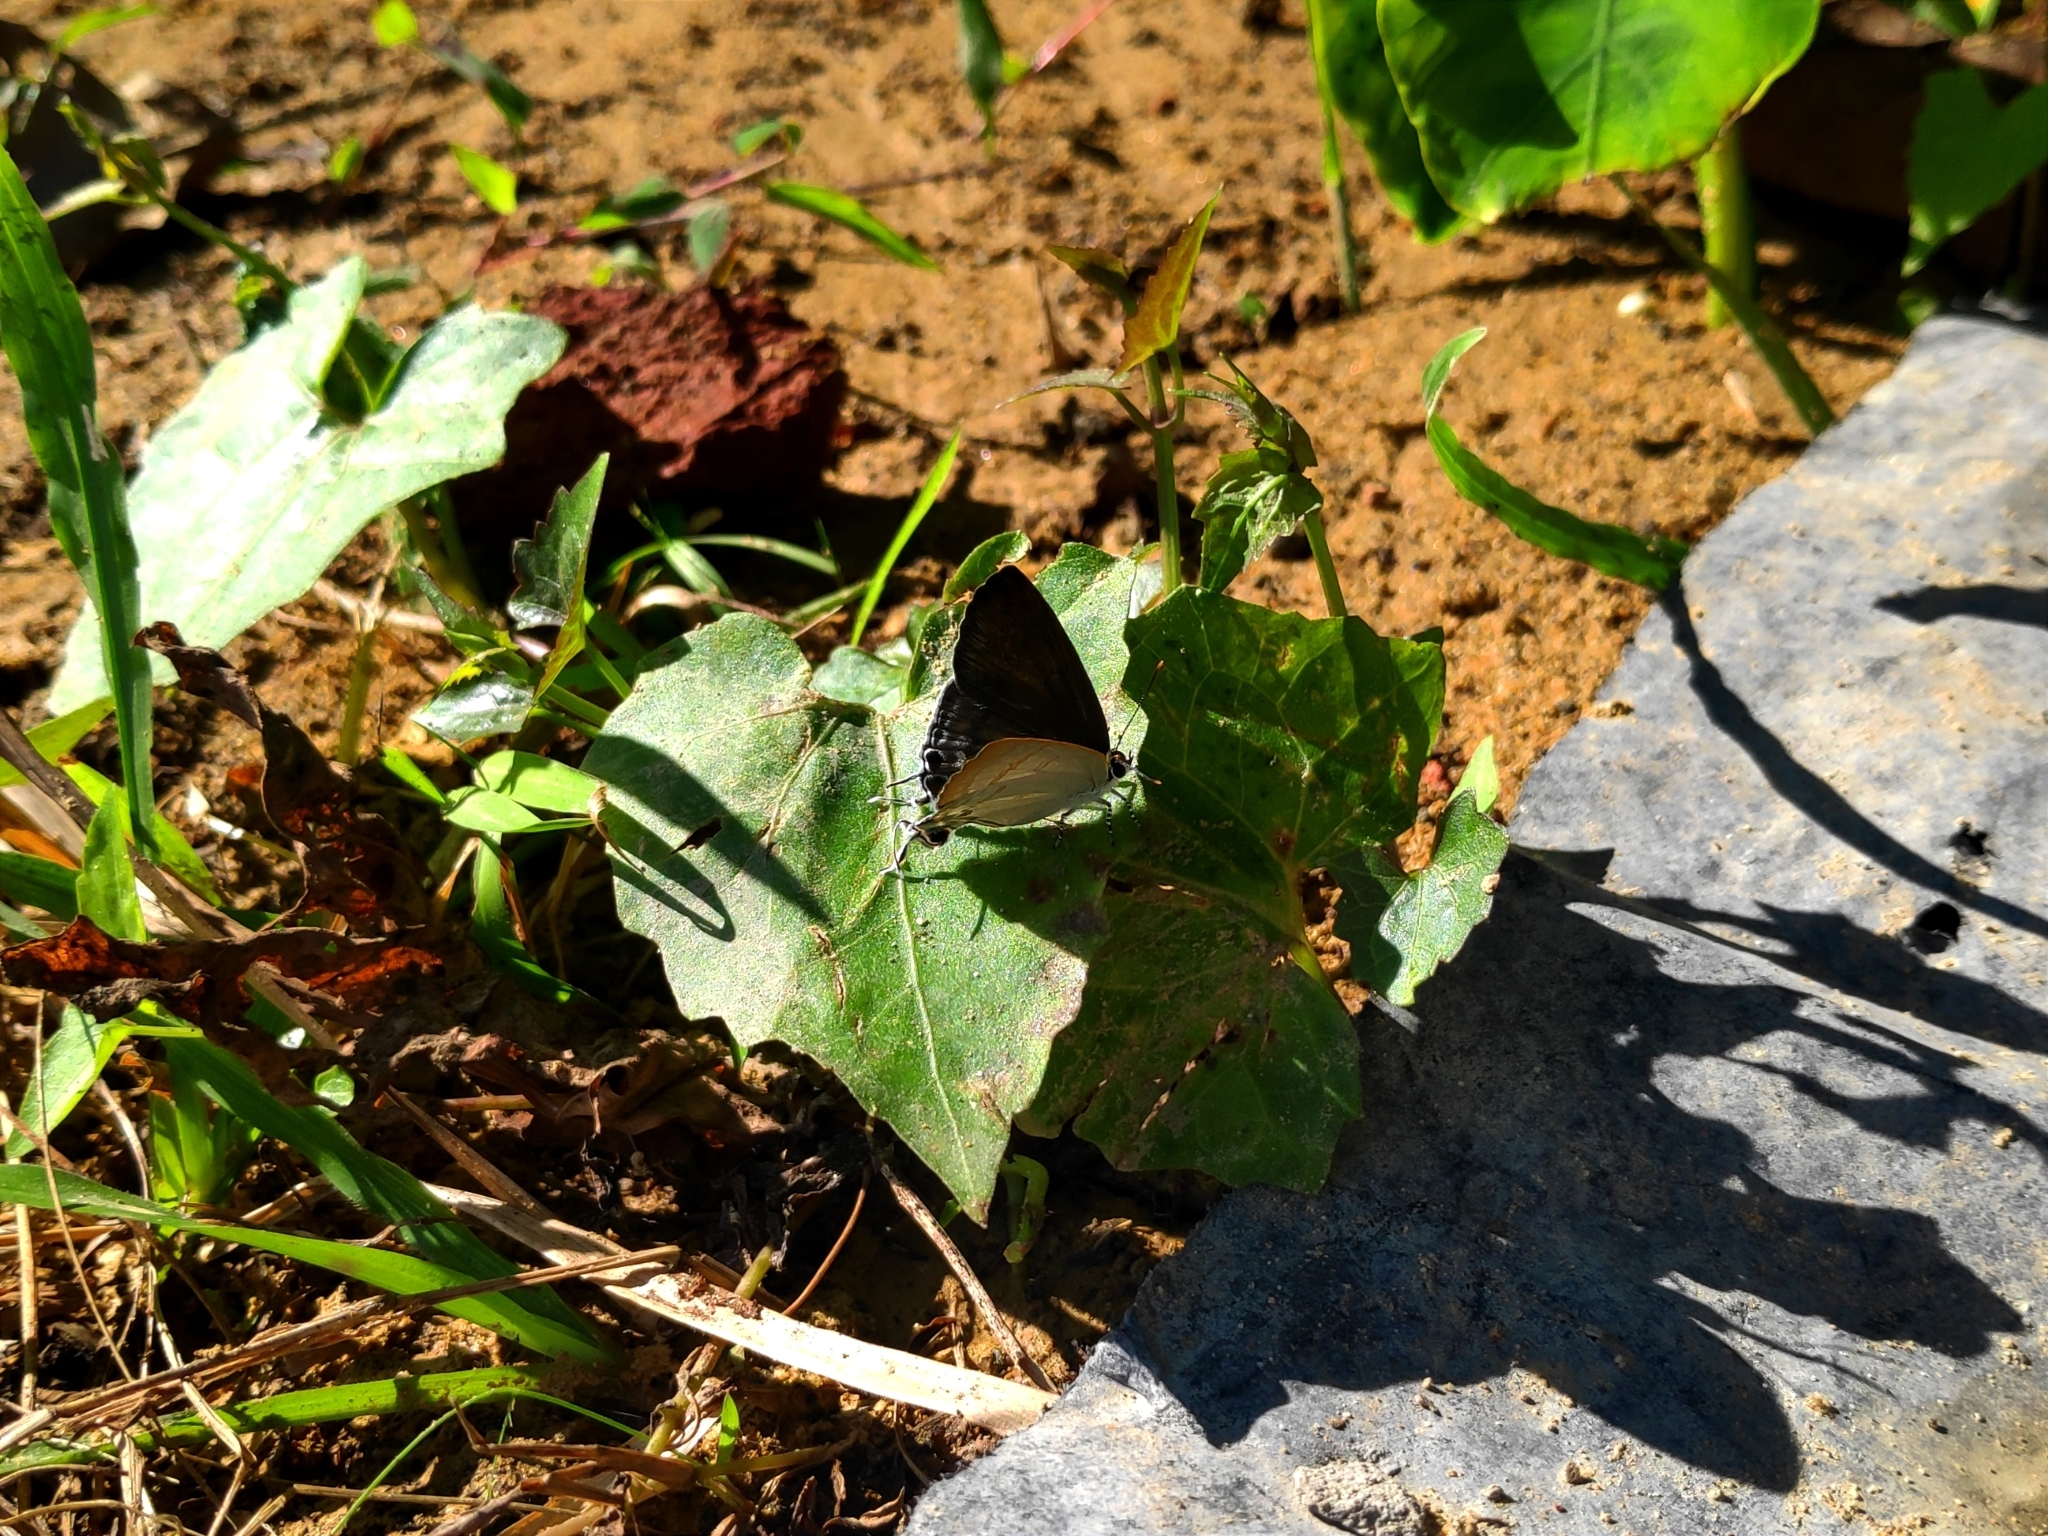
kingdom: Animalia
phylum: Arthropoda
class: Insecta
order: Lepidoptera
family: Lycaenidae
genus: Hypolycaena
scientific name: Hypolycaena erylus
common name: Common tit
